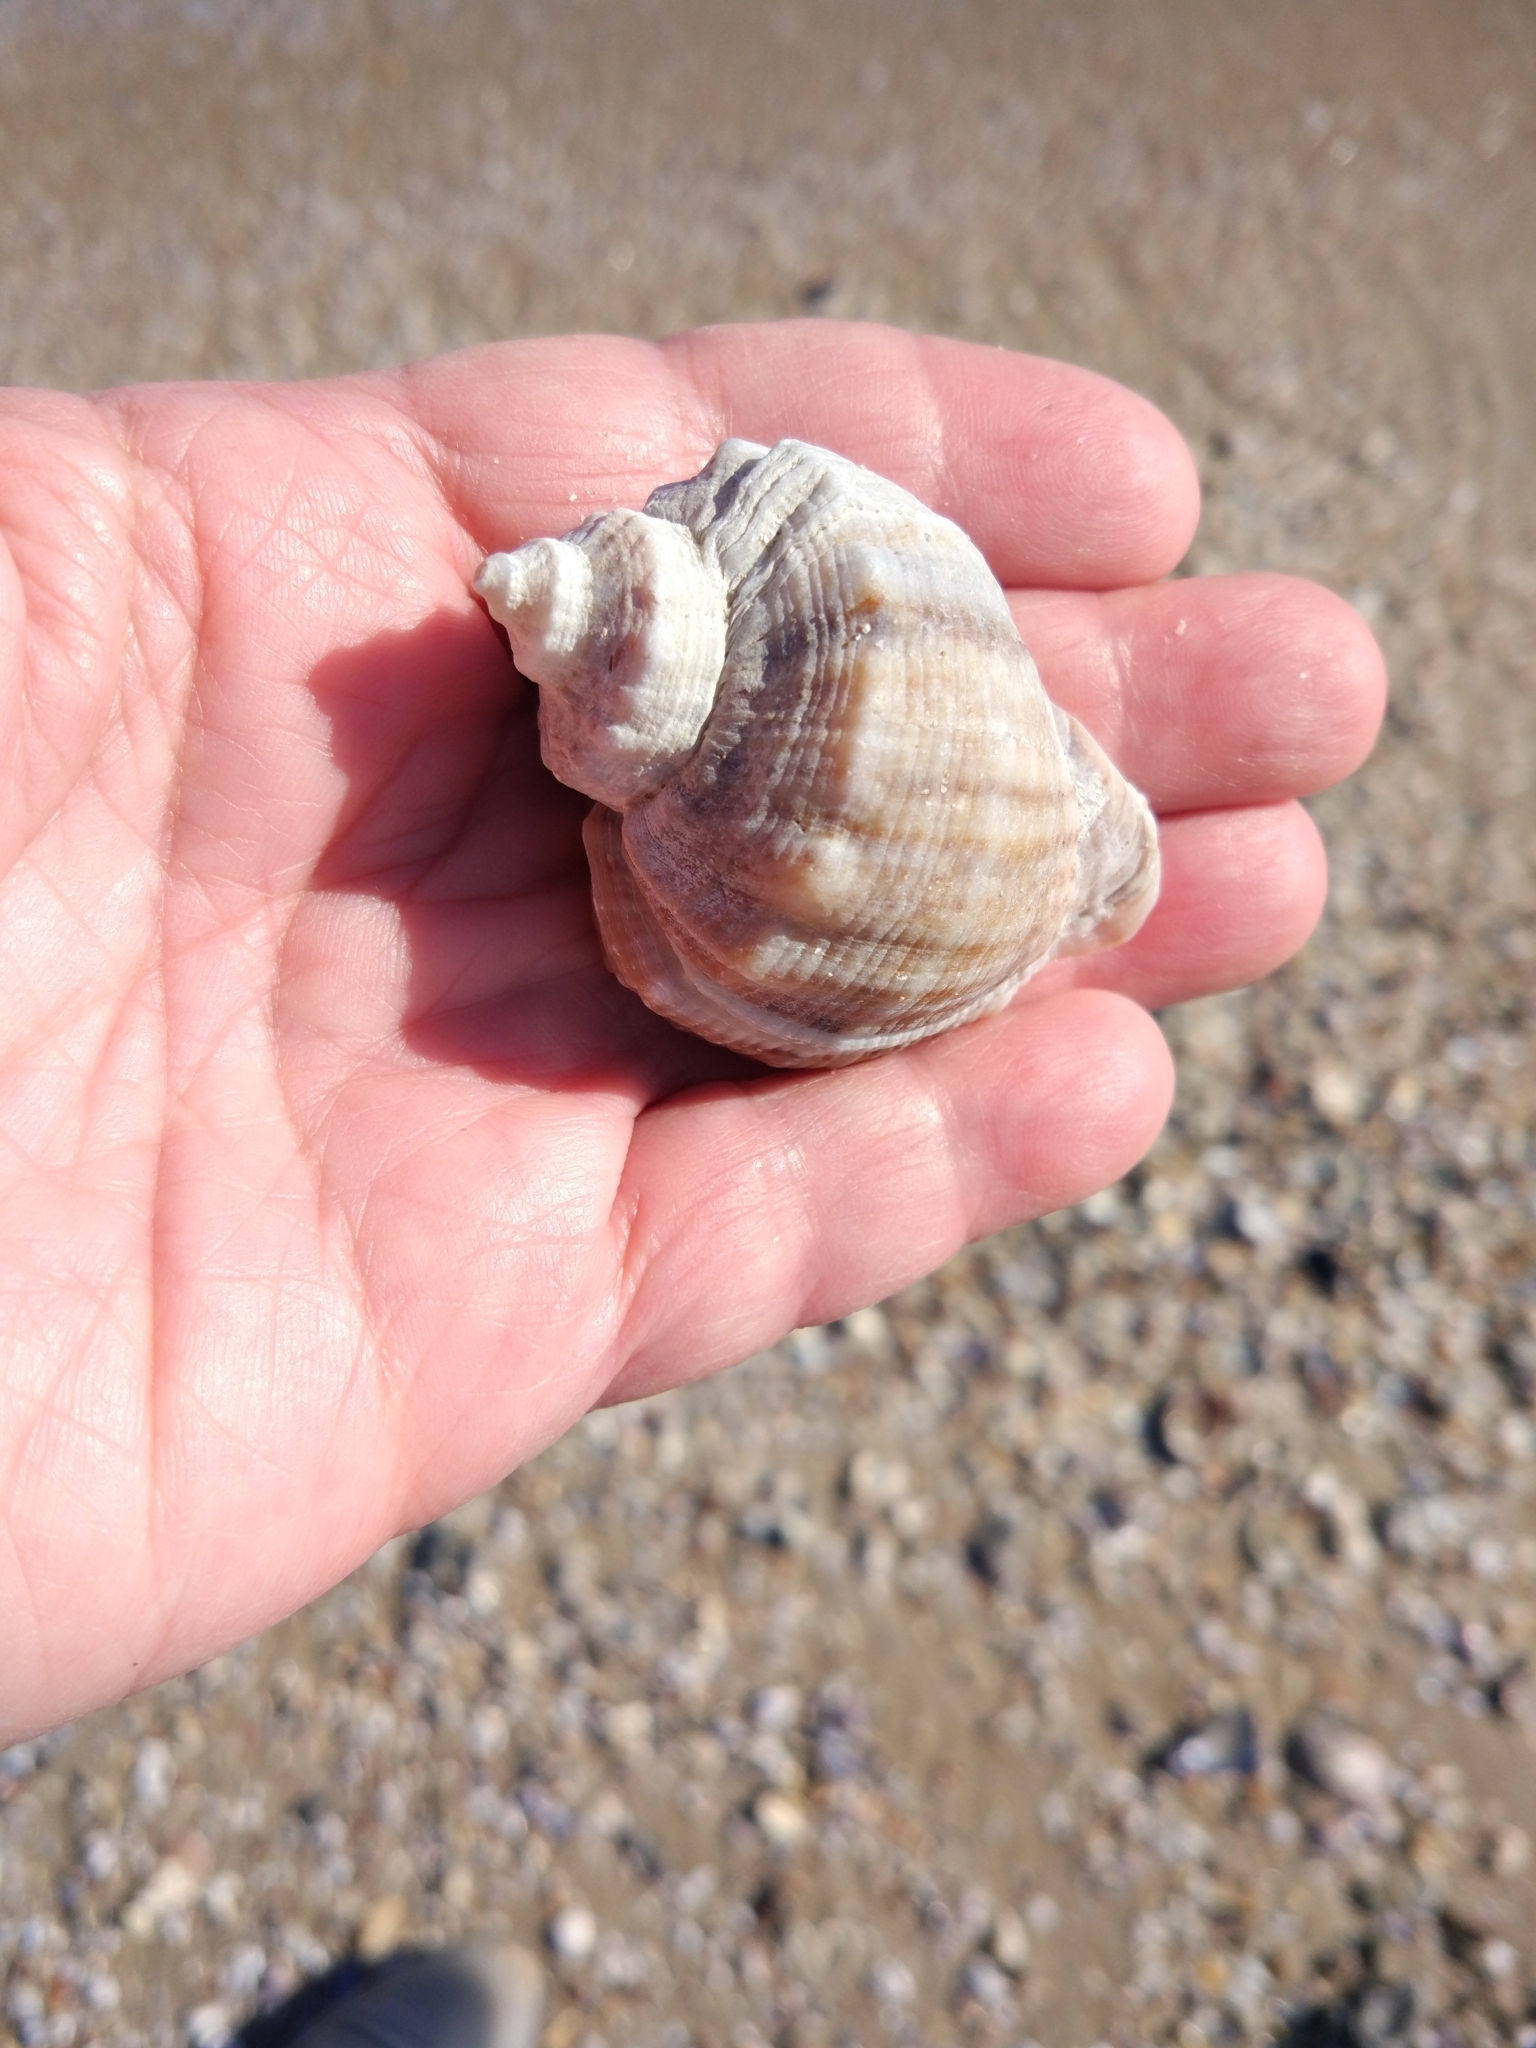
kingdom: Animalia
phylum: Mollusca
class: Gastropoda
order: Neogastropoda
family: Muricidae
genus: Rapana
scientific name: Rapana venosa
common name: Veined rapa whelk
